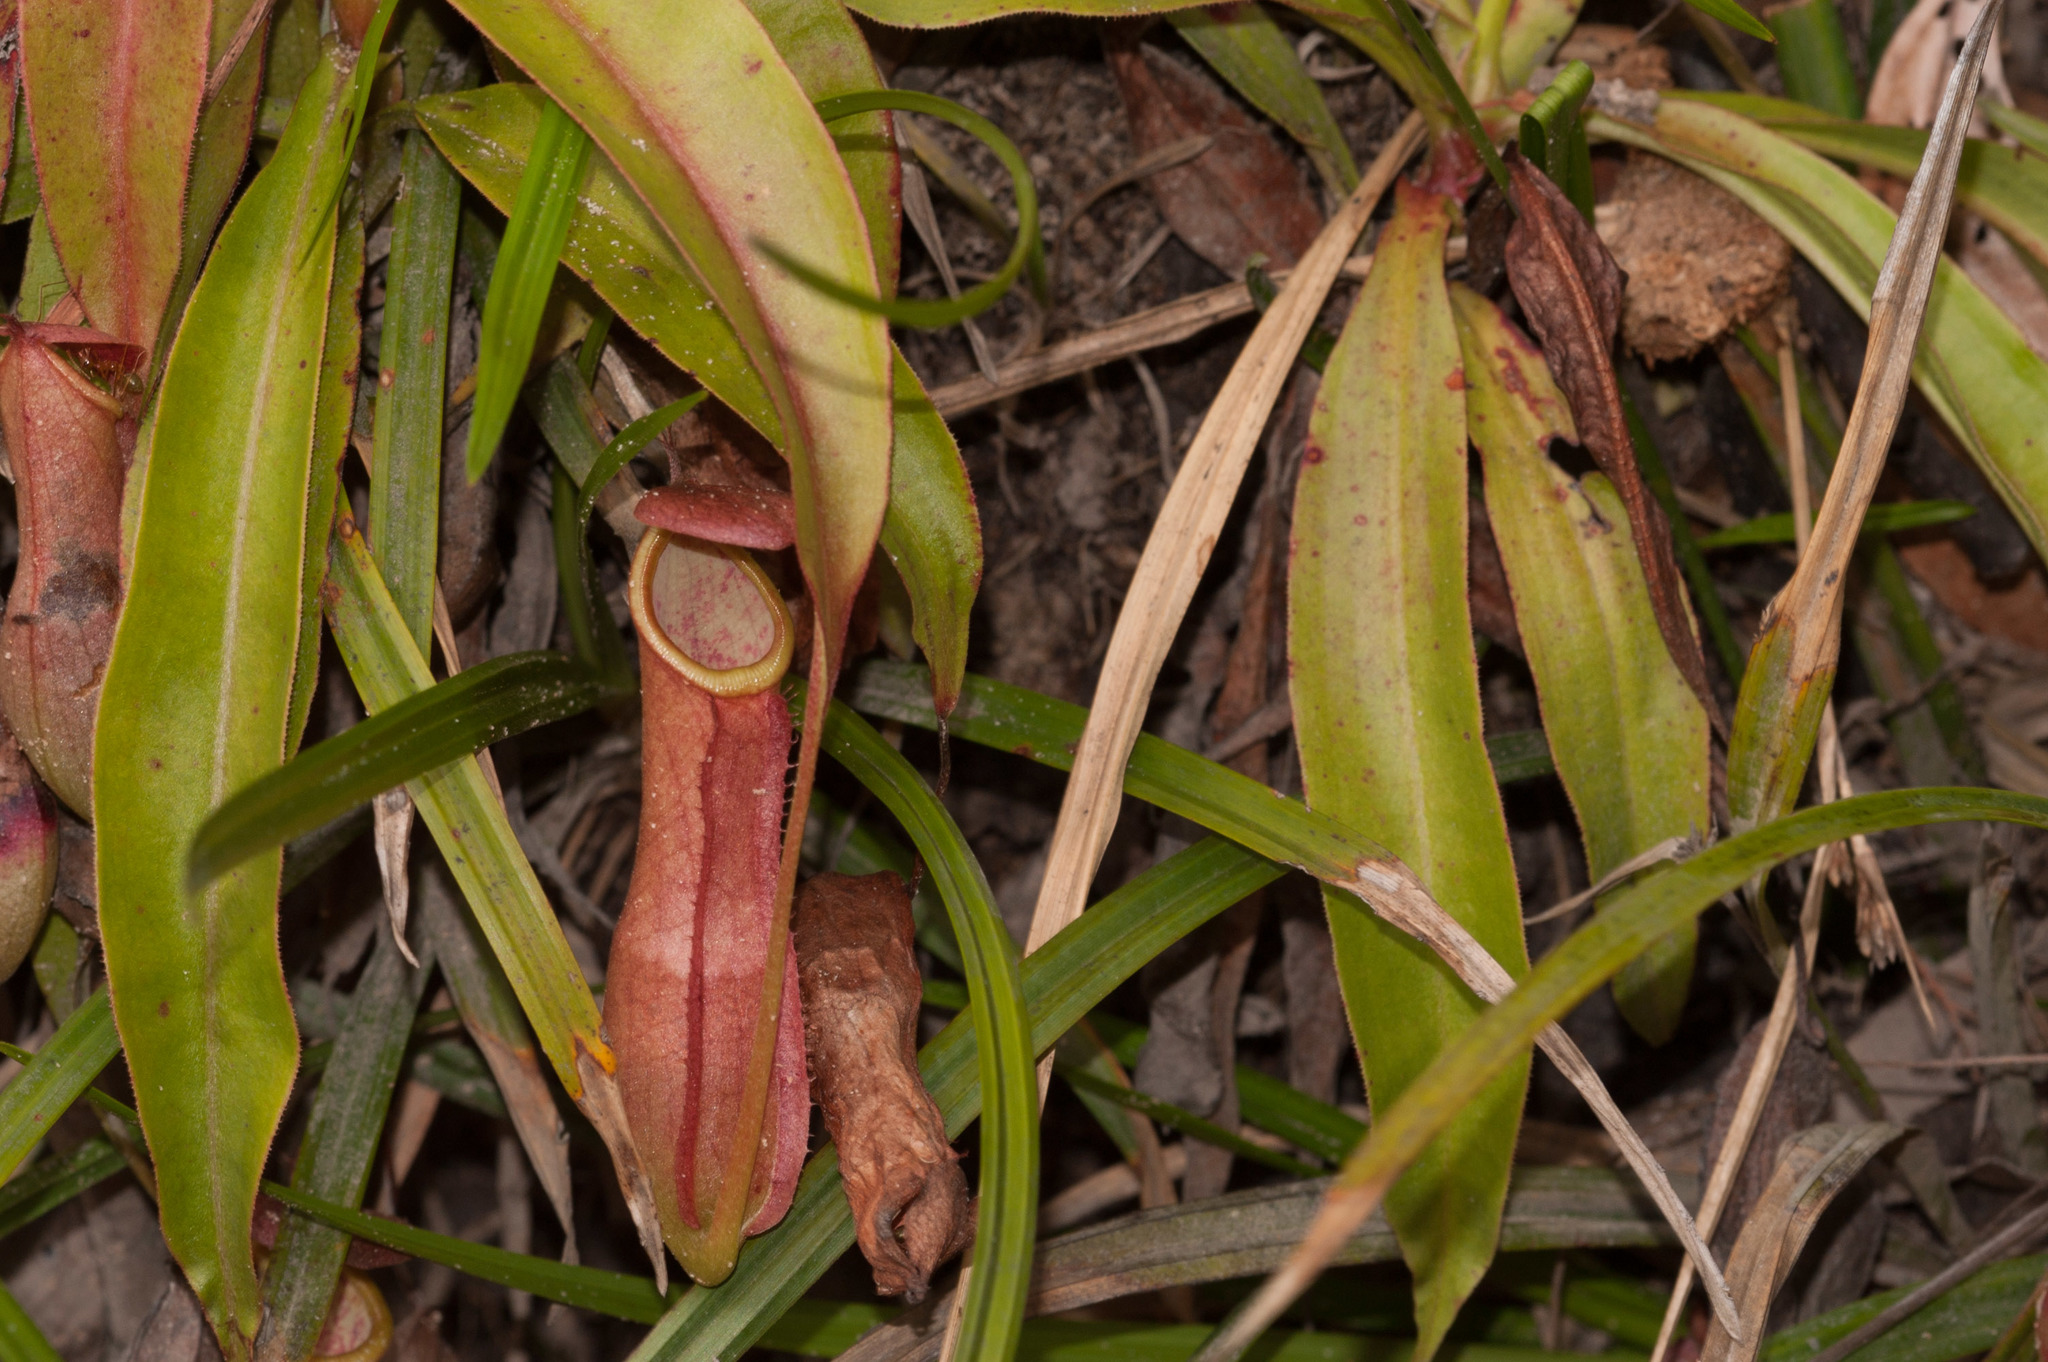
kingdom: Plantae
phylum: Tracheophyta
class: Magnoliopsida
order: Caryophyllales
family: Nepenthaceae
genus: Nepenthes
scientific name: Nepenthes mirabilis
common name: Tropical pitcherplant
